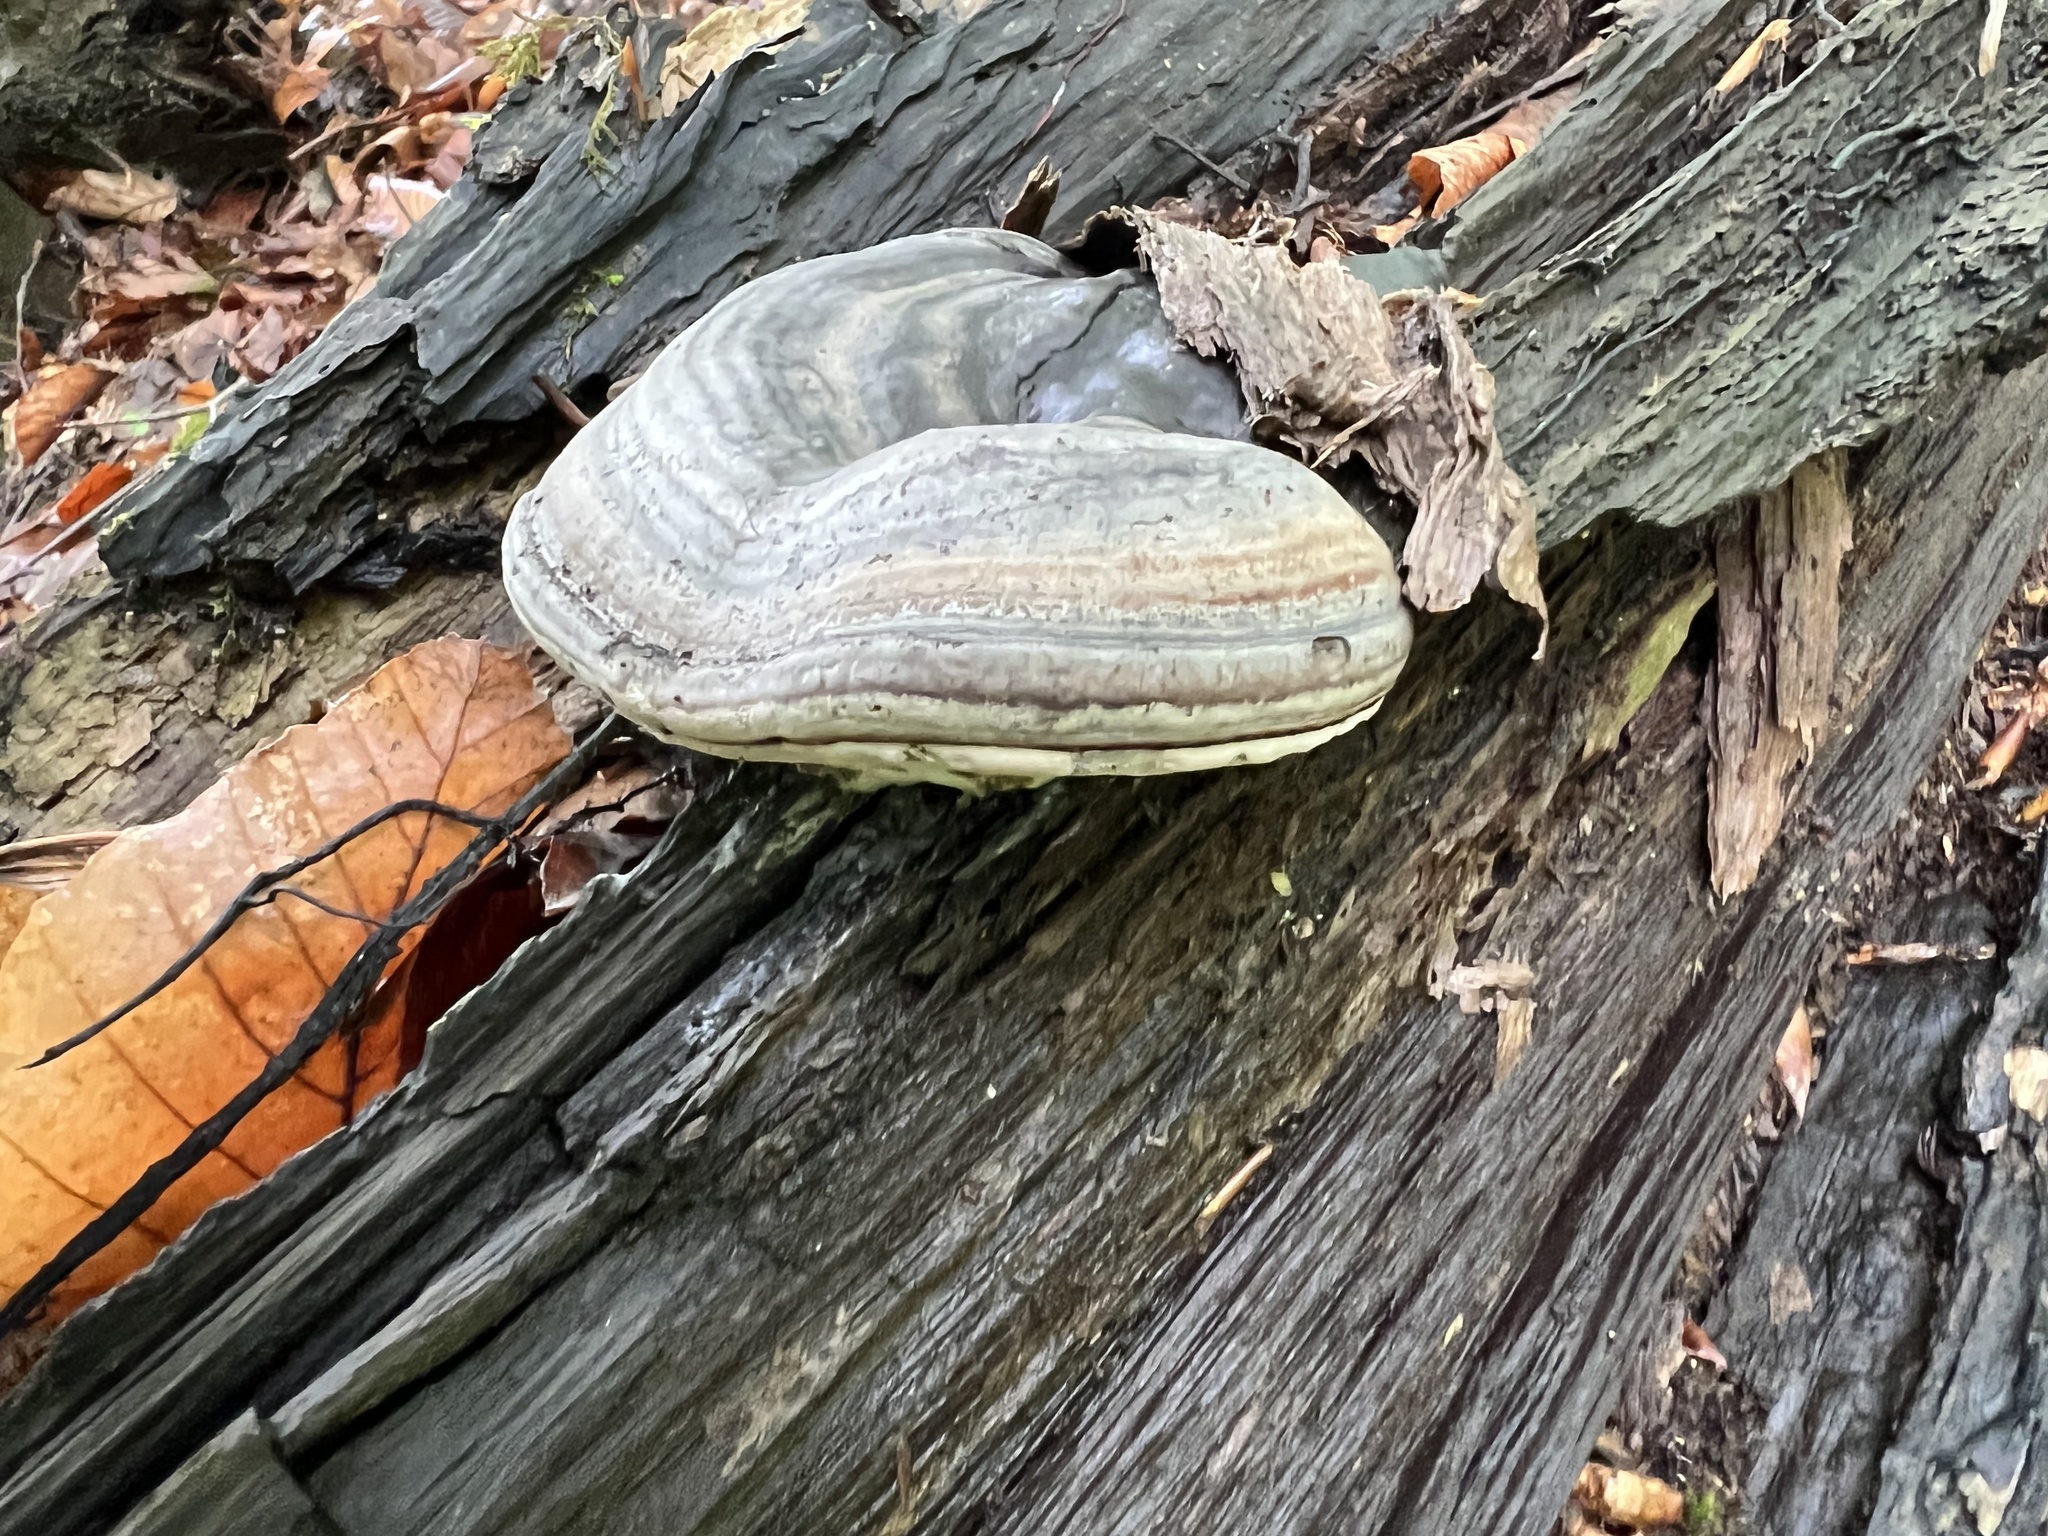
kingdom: Fungi
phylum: Basidiomycota
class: Agaricomycetes
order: Polyporales
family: Polyporaceae
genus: Fomes
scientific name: Fomes fomentarius
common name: Hoof fungus
